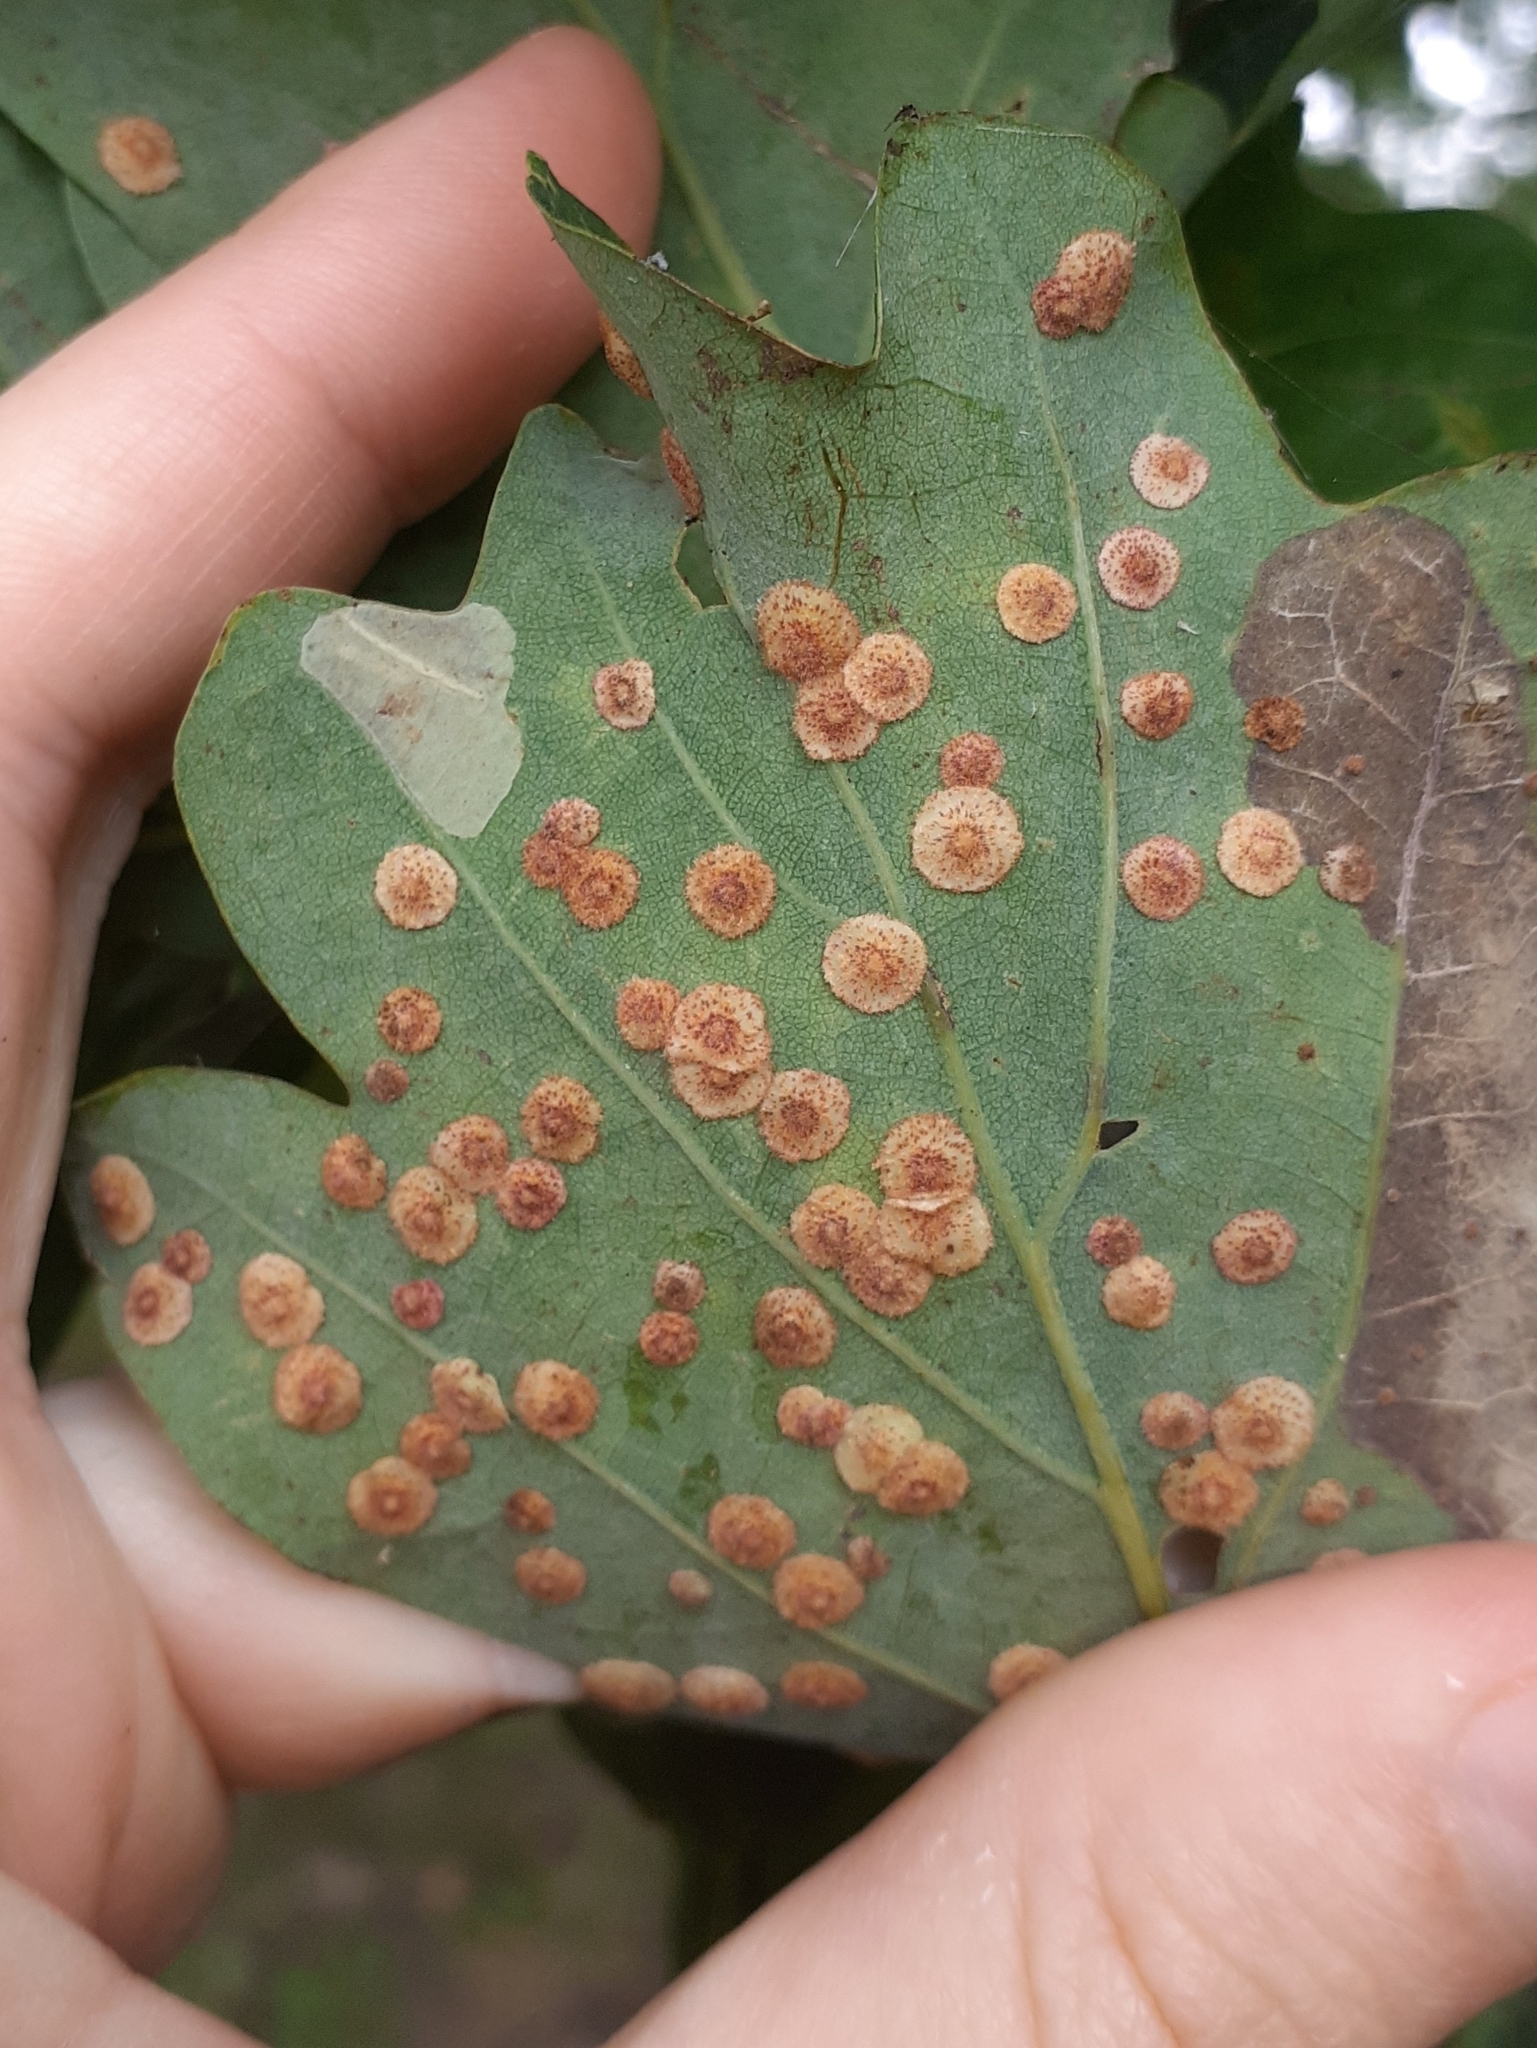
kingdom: Animalia
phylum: Arthropoda
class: Insecta
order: Hymenoptera
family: Cynipidae
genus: Neuroterus
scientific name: Neuroterus quercusbaccarum
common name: Common spangle gall
